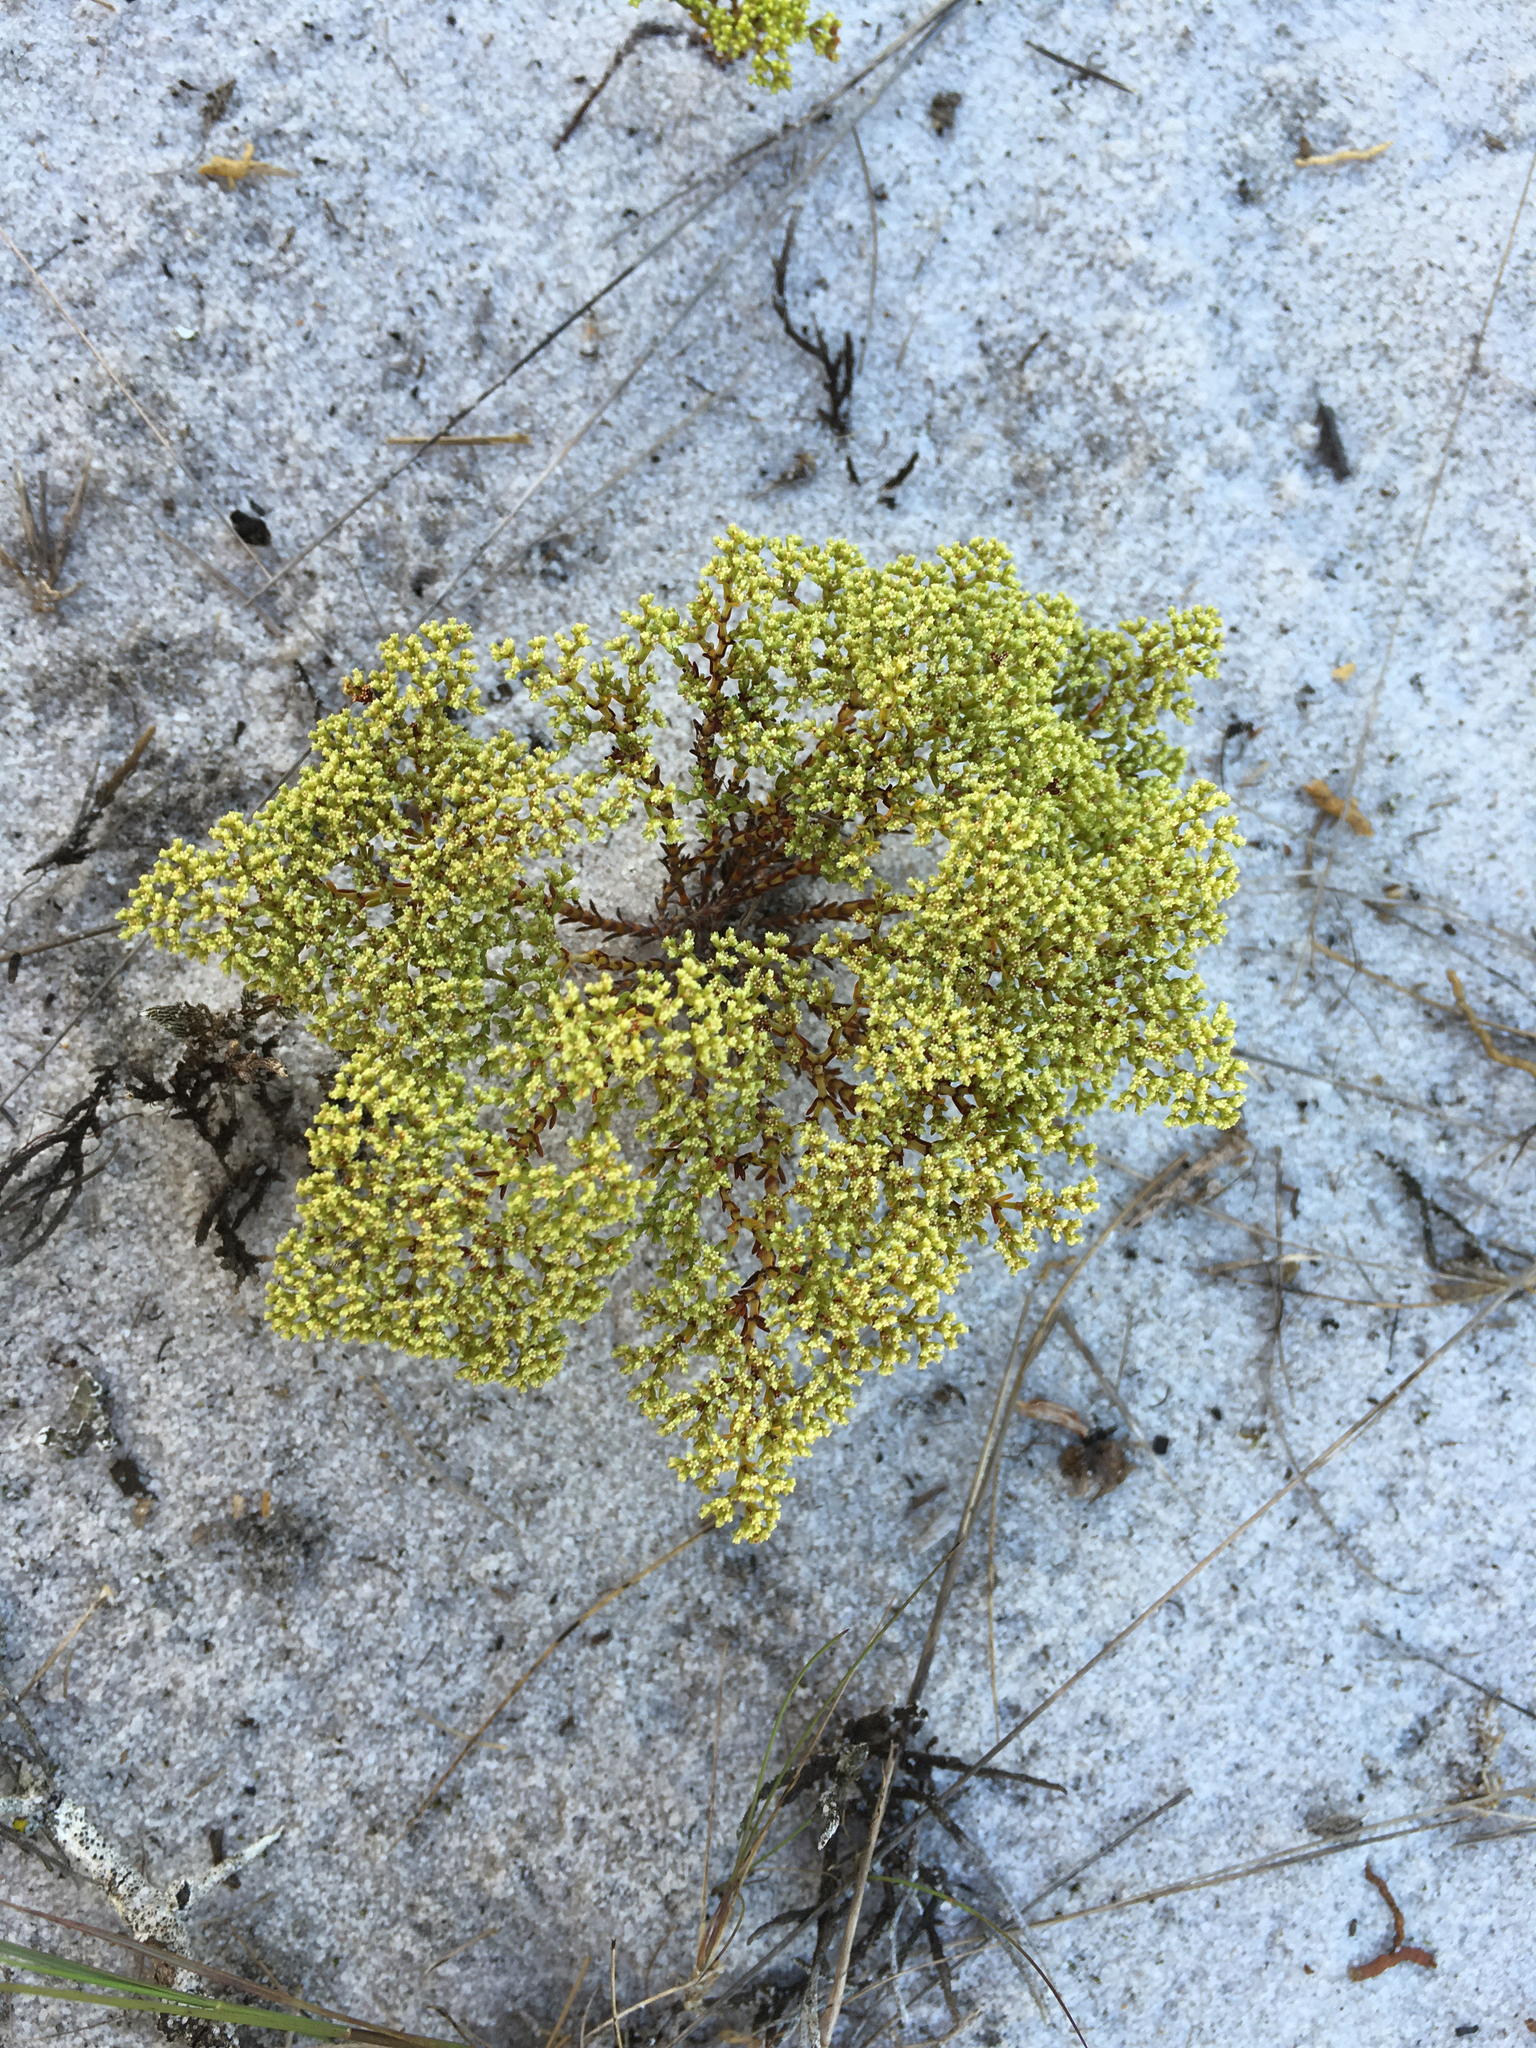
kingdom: Plantae
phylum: Tracheophyta
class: Magnoliopsida
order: Caryophyllales
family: Caryophyllaceae
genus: Paronychia
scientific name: Paronychia chartacea
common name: Paper nailwort
